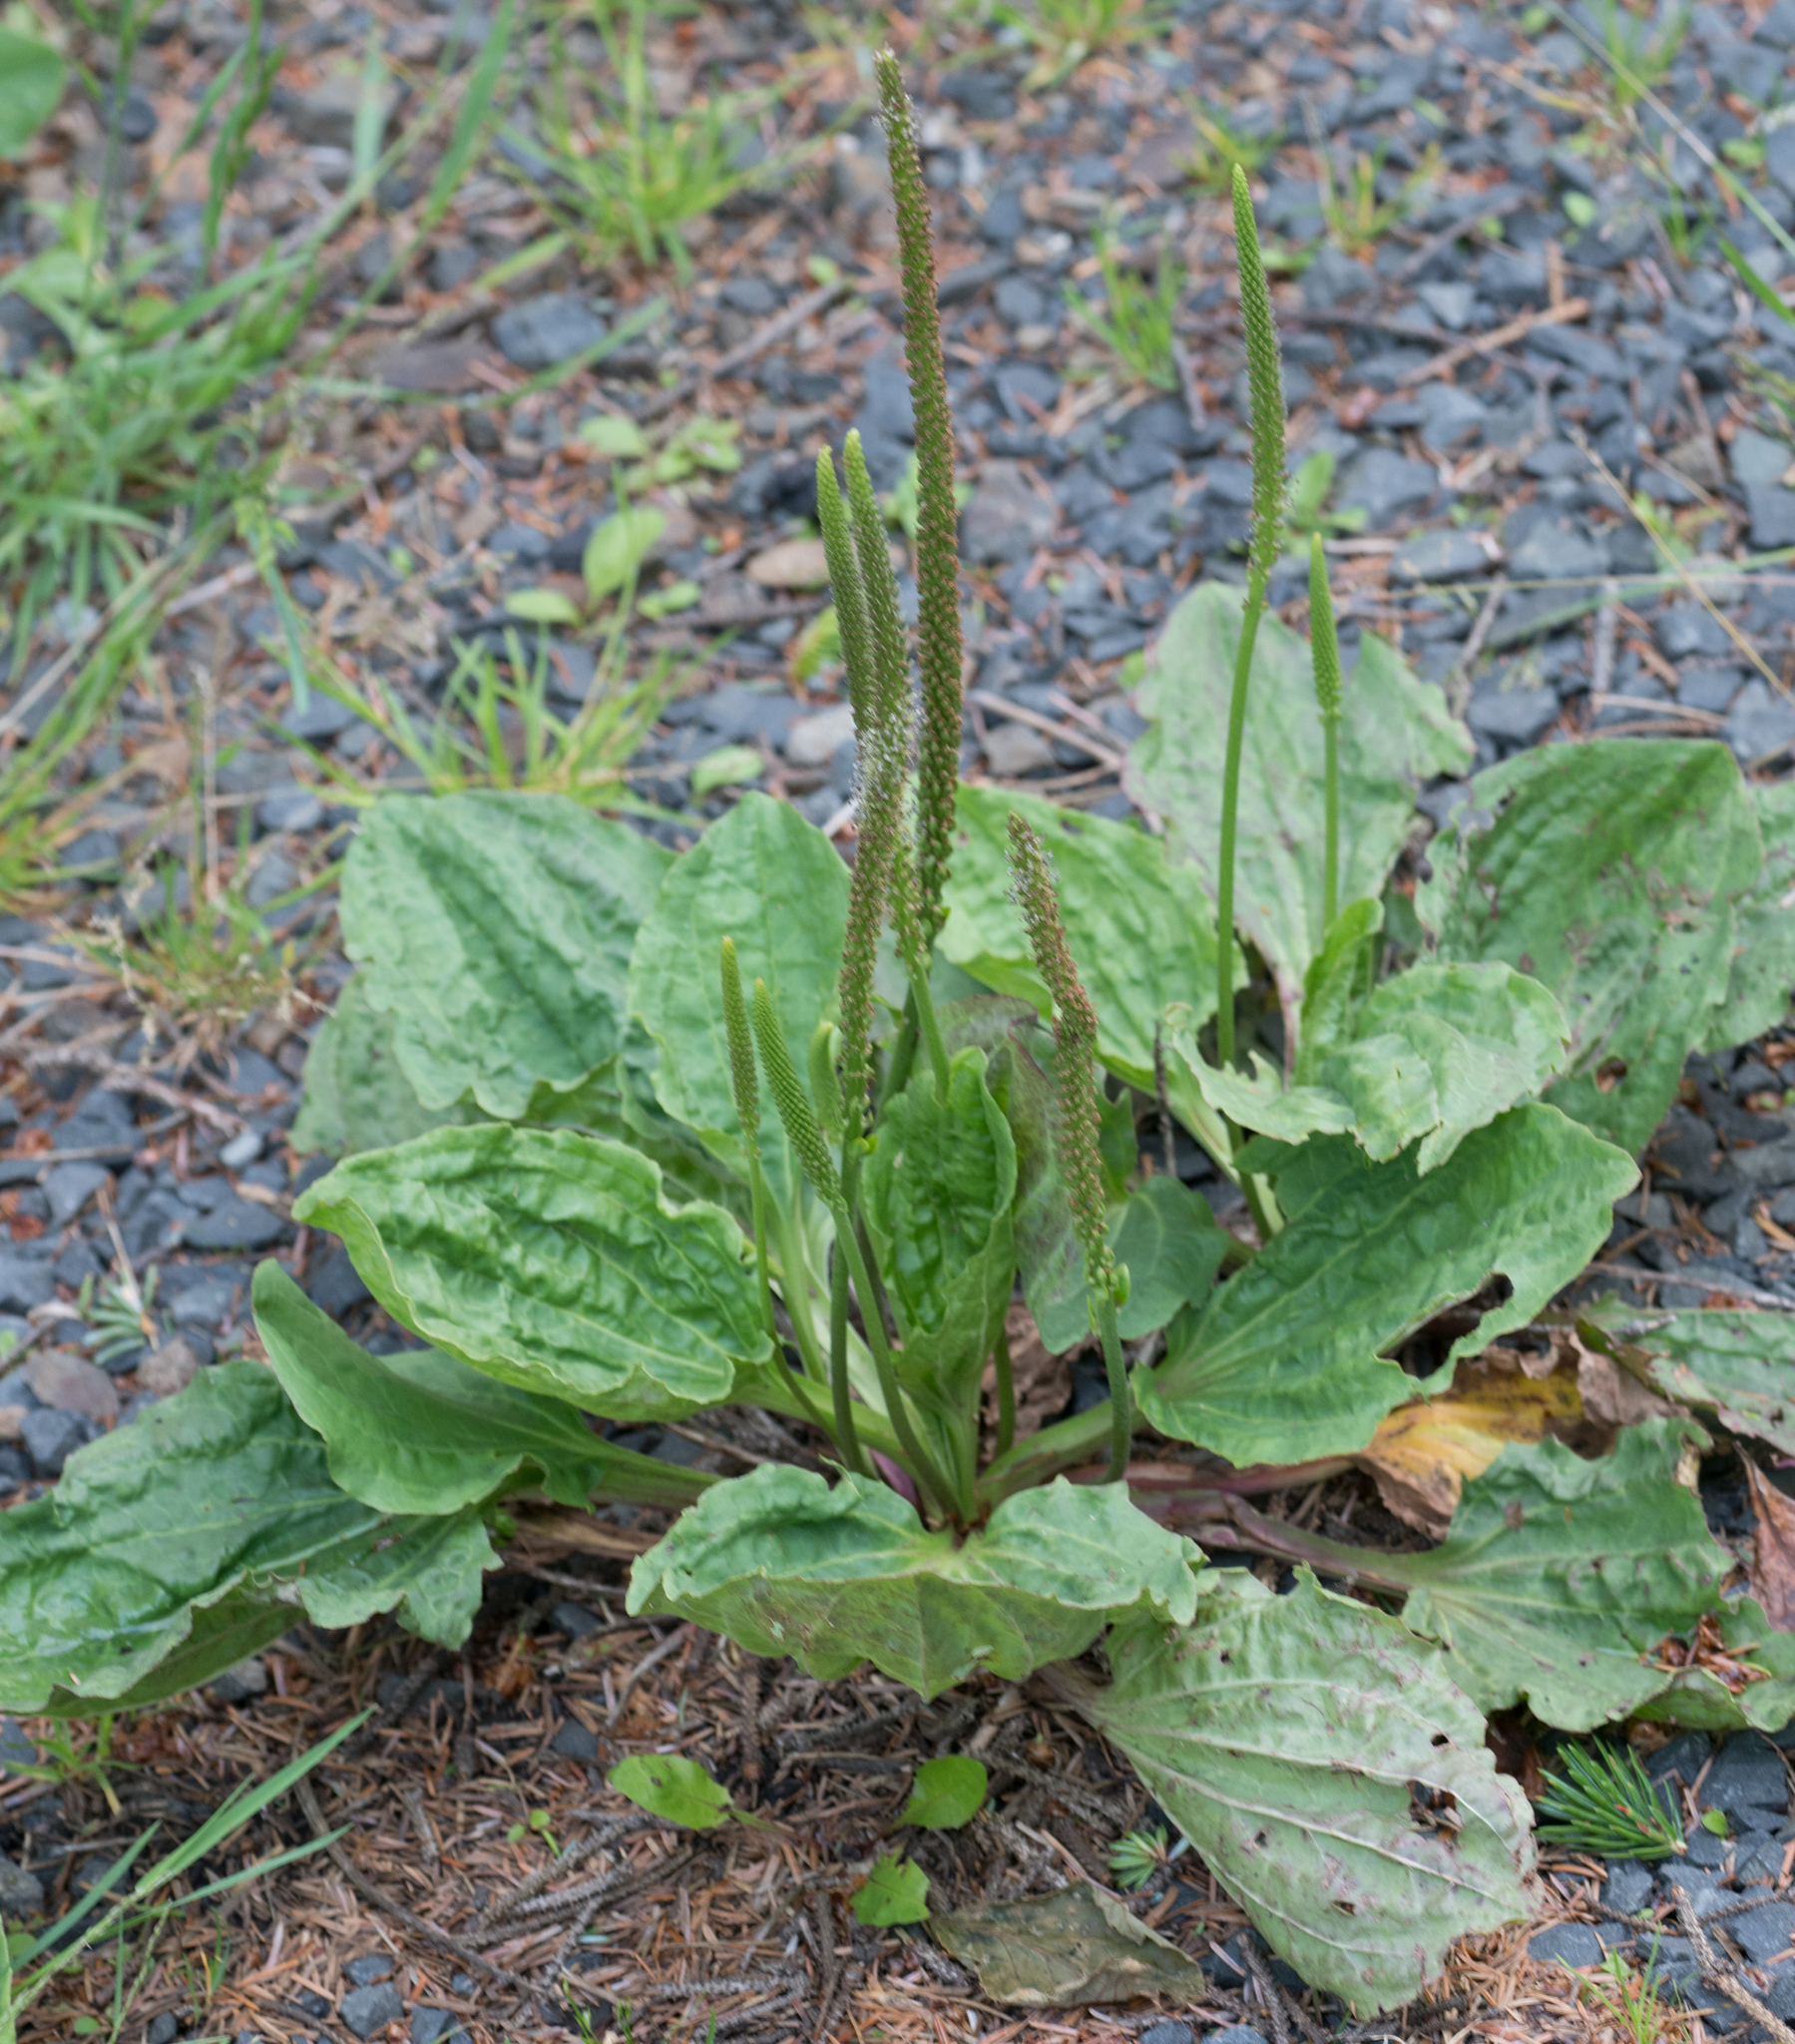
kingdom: Plantae
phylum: Tracheophyta
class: Magnoliopsida
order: Lamiales
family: Plantaginaceae
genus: Plantago
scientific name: Plantago major
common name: Common plantain
